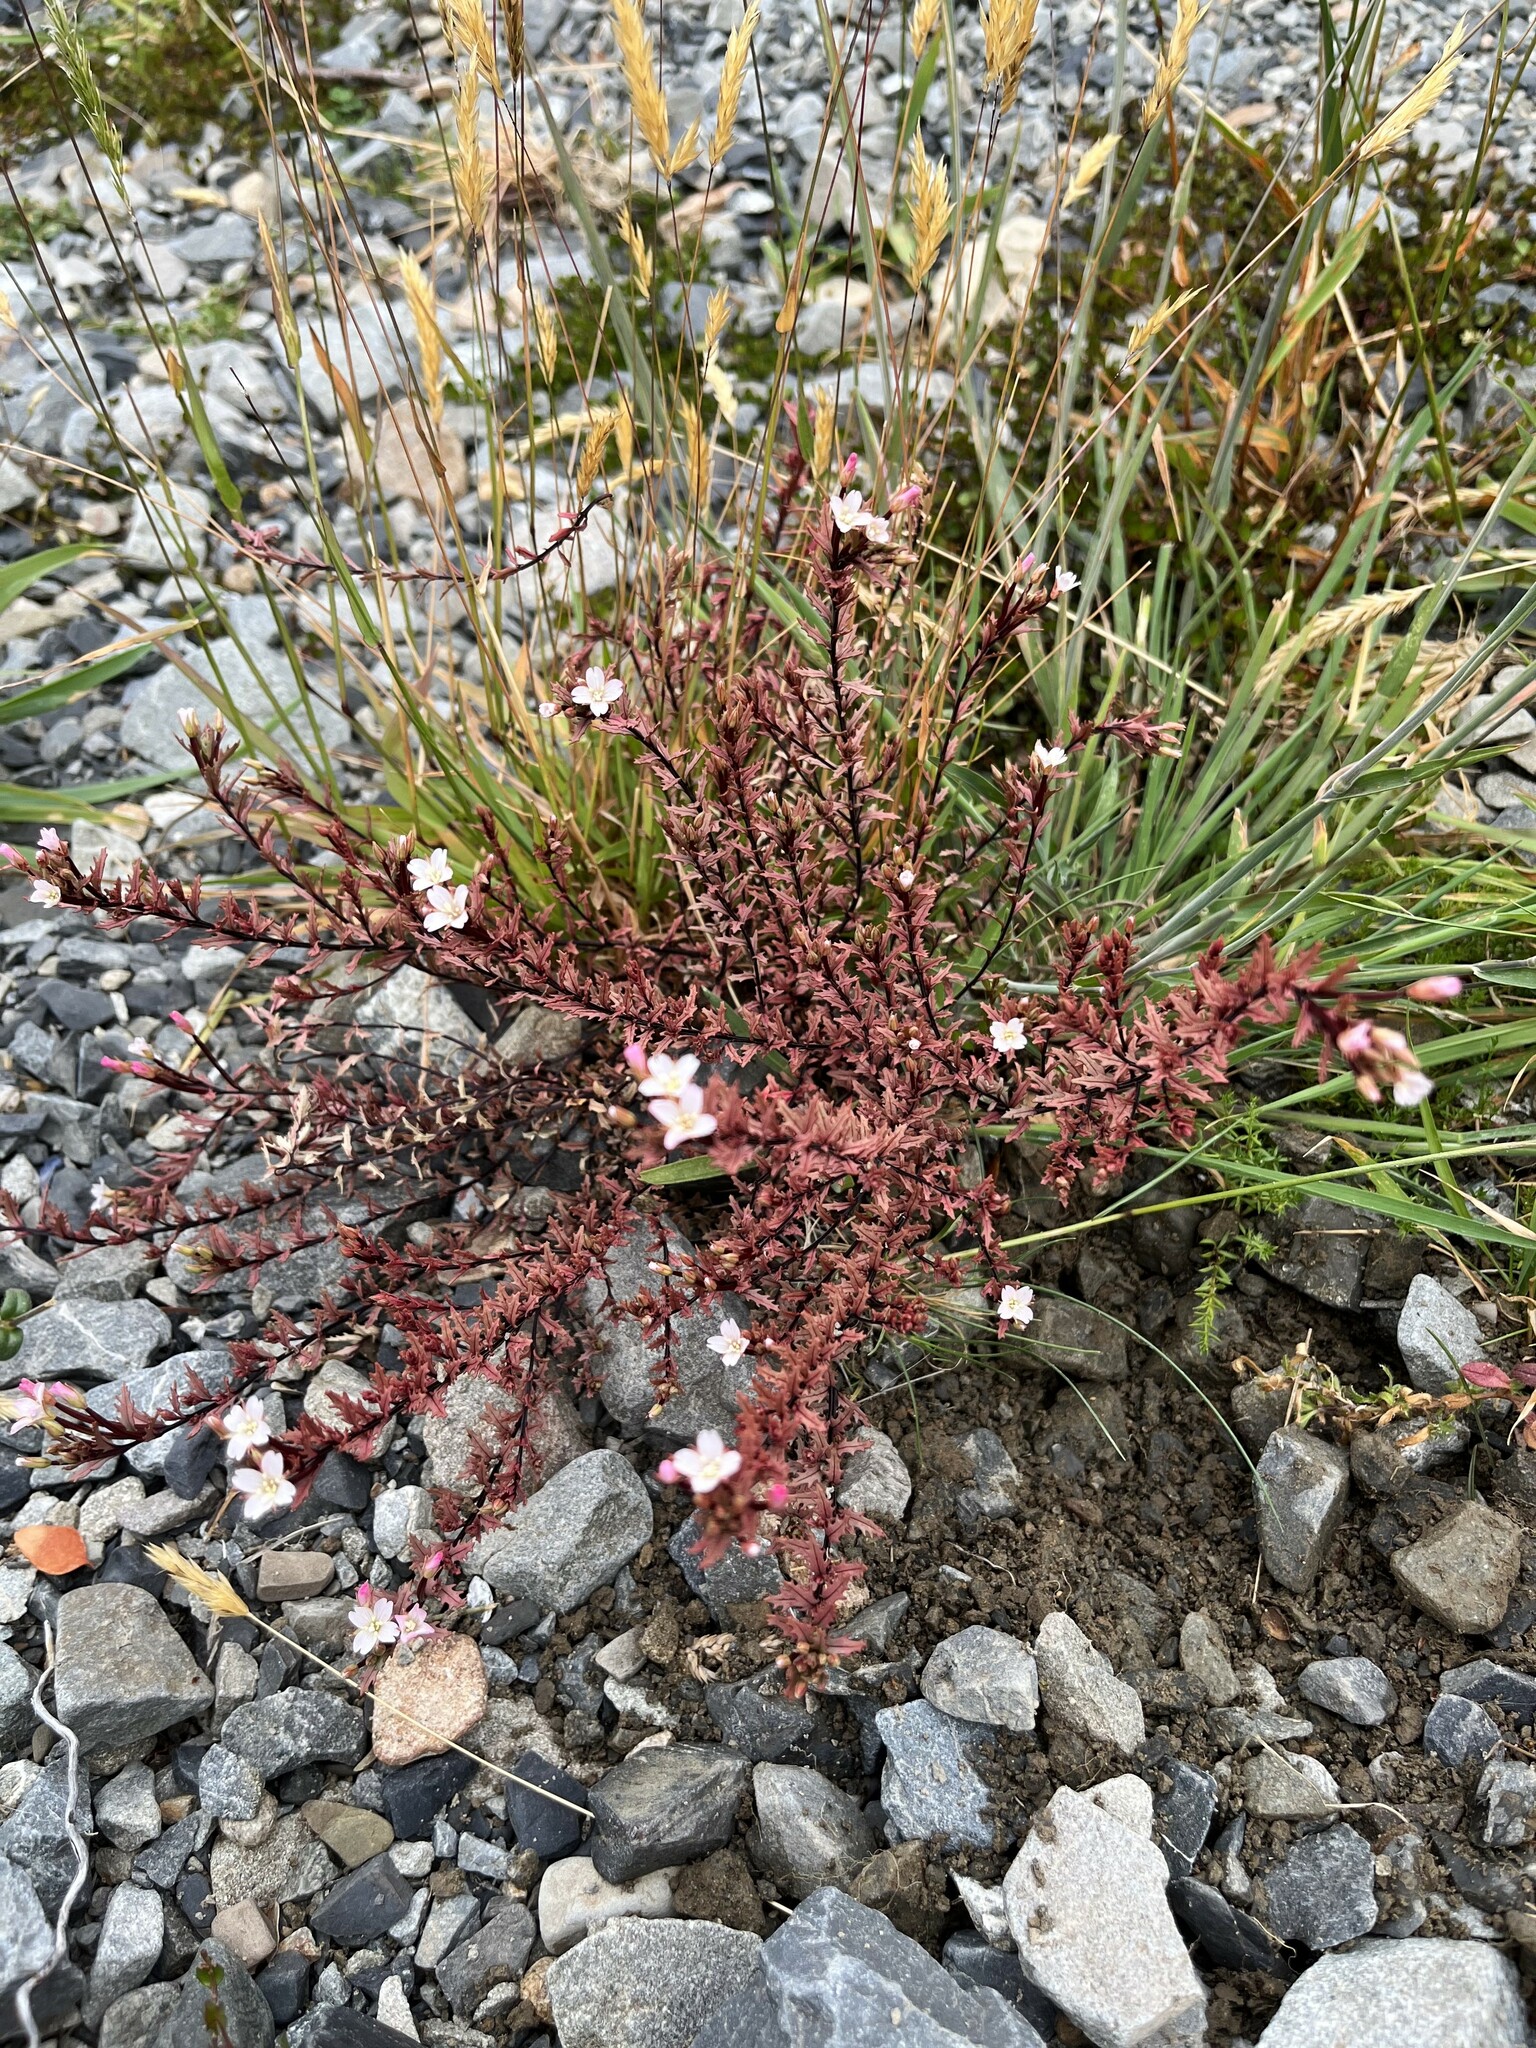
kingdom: Plantae
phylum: Tracheophyta
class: Magnoliopsida
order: Myrtales
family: Onagraceae
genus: Epilobium
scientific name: Epilobium melanocaulon
